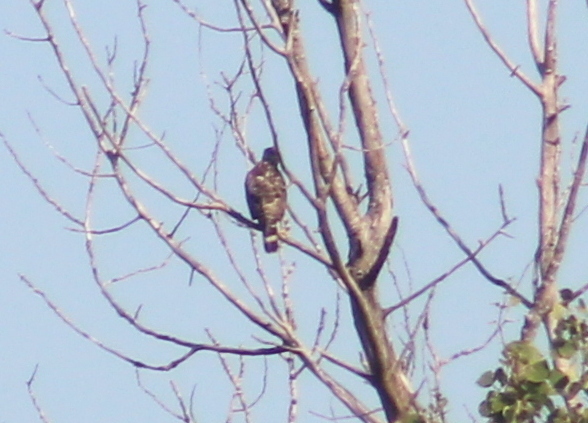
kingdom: Animalia
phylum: Chordata
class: Aves
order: Accipitriformes
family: Accipitridae
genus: Buteo
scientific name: Buteo platypterus
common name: Broad-winged hawk
